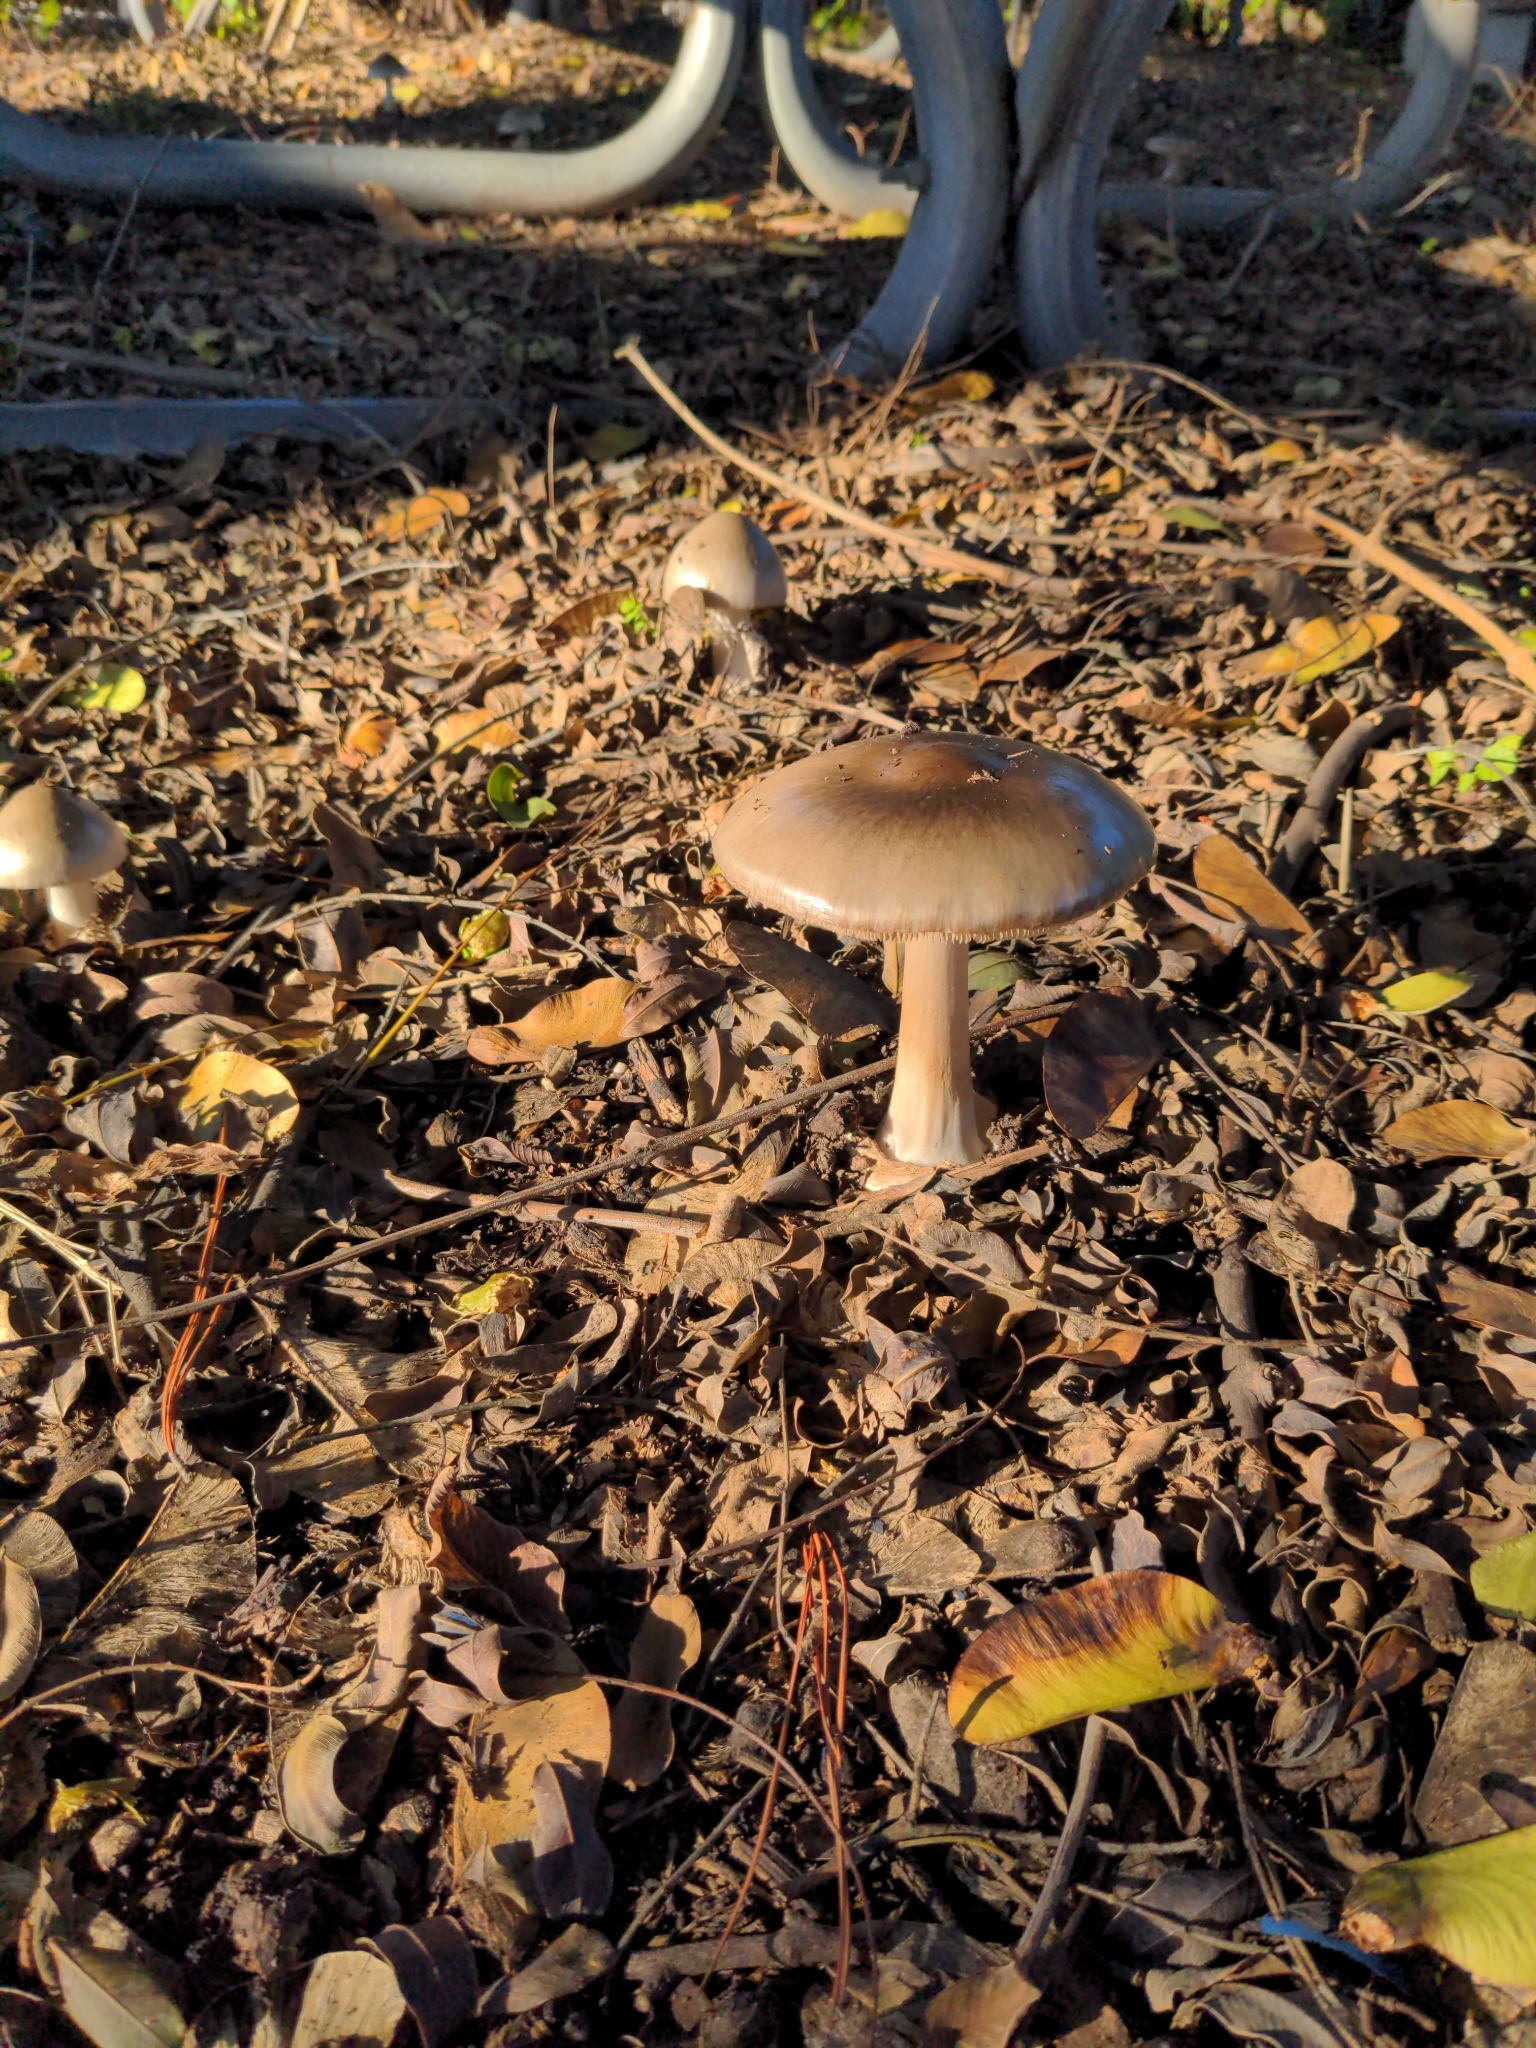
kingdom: Fungi
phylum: Basidiomycota
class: Agaricomycetes
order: Agaricales
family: Pluteaceae
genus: Volvopluteus
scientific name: Volvopluteus gloiocephalus
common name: Stubble rosegill
